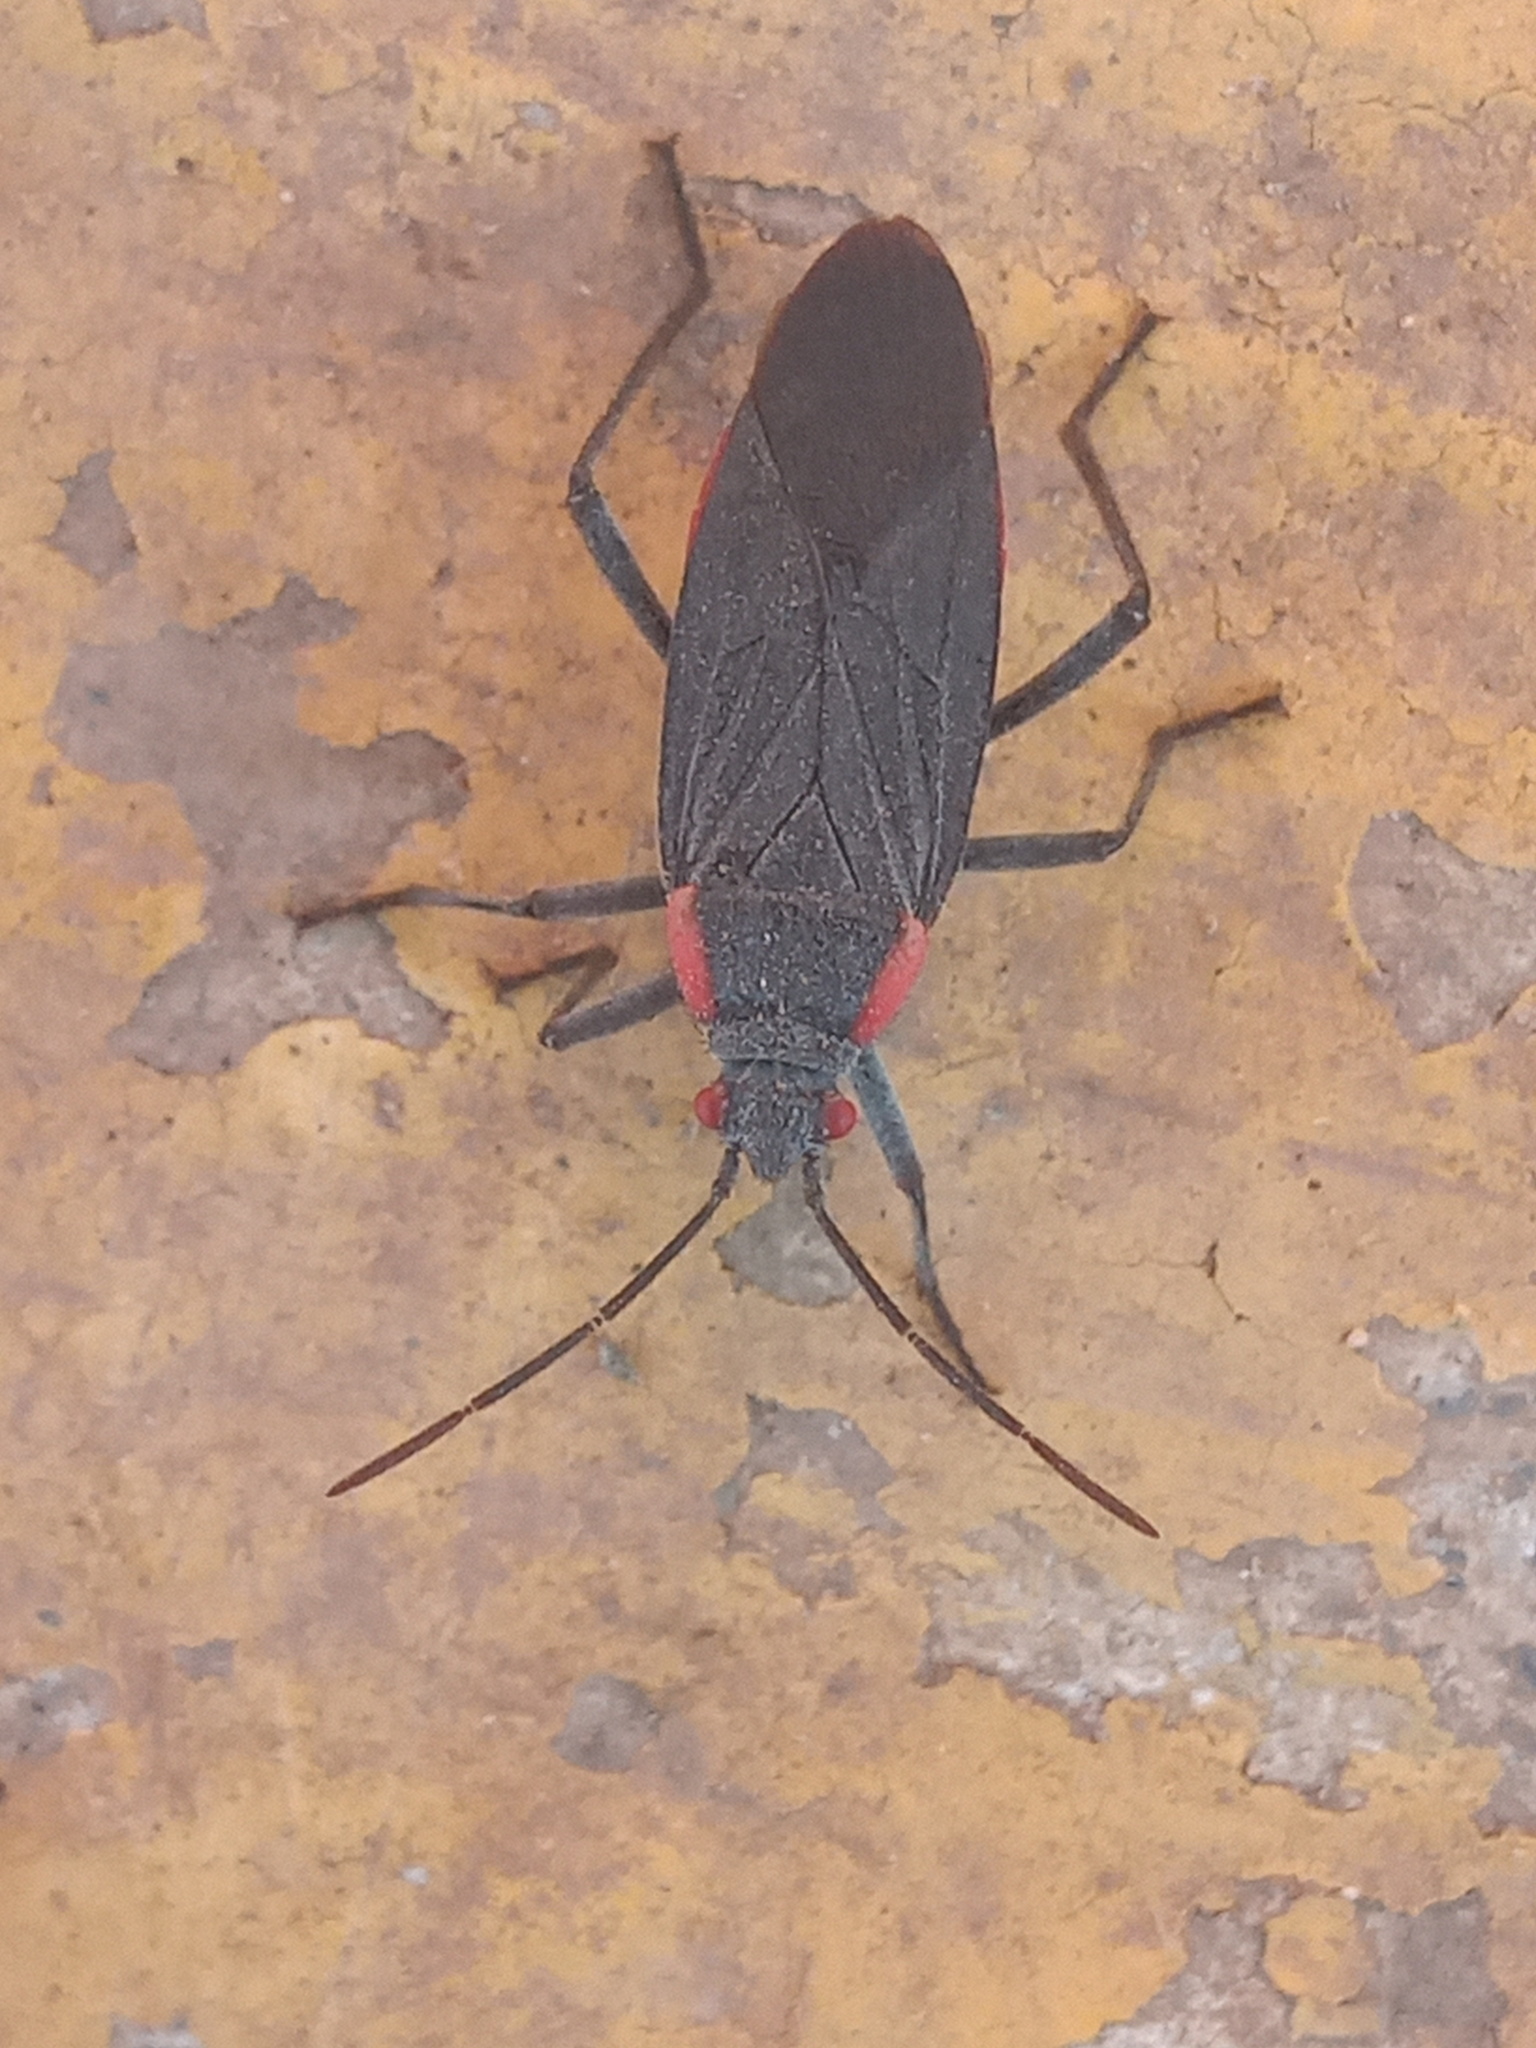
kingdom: Animalia
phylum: Arthropoda
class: Insecta
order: Hemiptera
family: Rhopalidae
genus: Jadera
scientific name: Jadera haematoloma
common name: Red-shouldered bug
